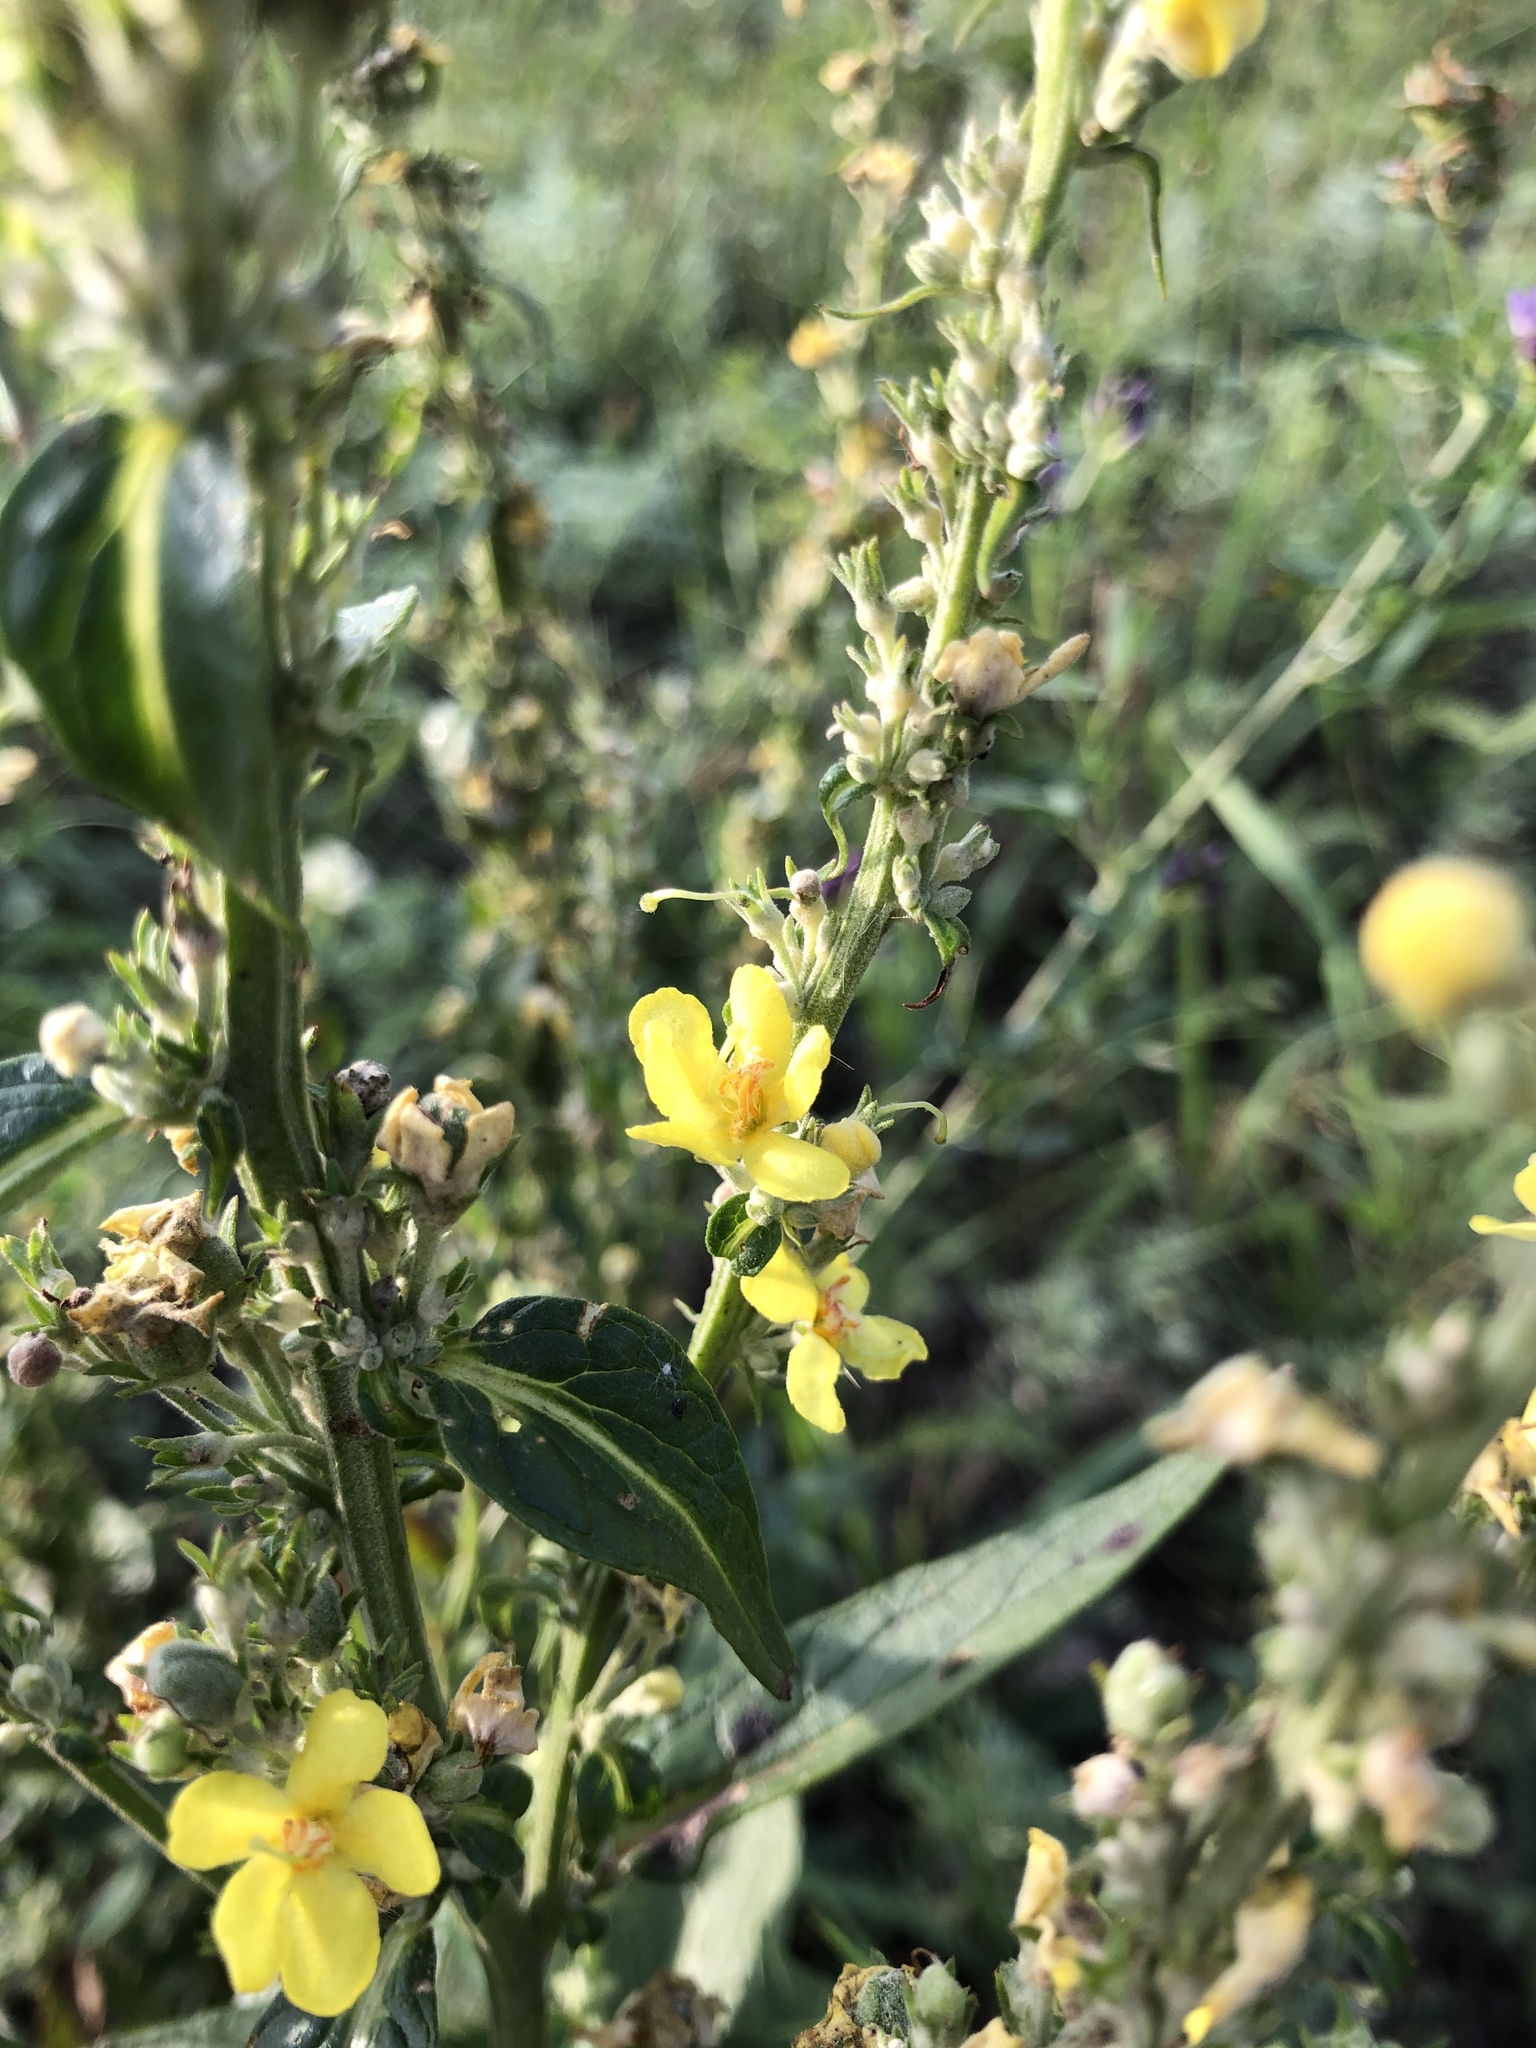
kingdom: Plantae
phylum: Tracheophyta
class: Magnoliopsida
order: Lamiales
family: Scrophulariaceae
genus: Verbascum
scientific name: Verbascum lychnitis
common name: White mullein
